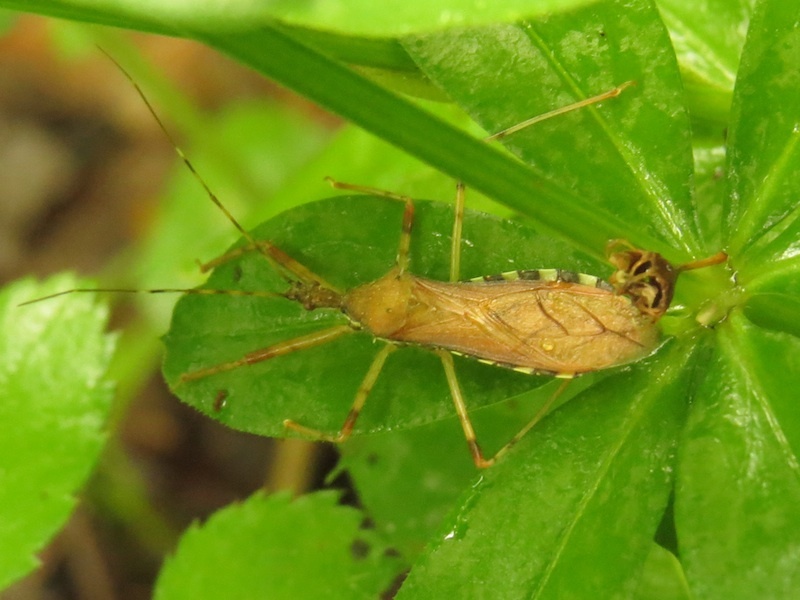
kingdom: Animalia
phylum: Arthropoda
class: Insecta
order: Hemiptera
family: Reduviidae
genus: Rocconota
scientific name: Rocconota annulicornis
